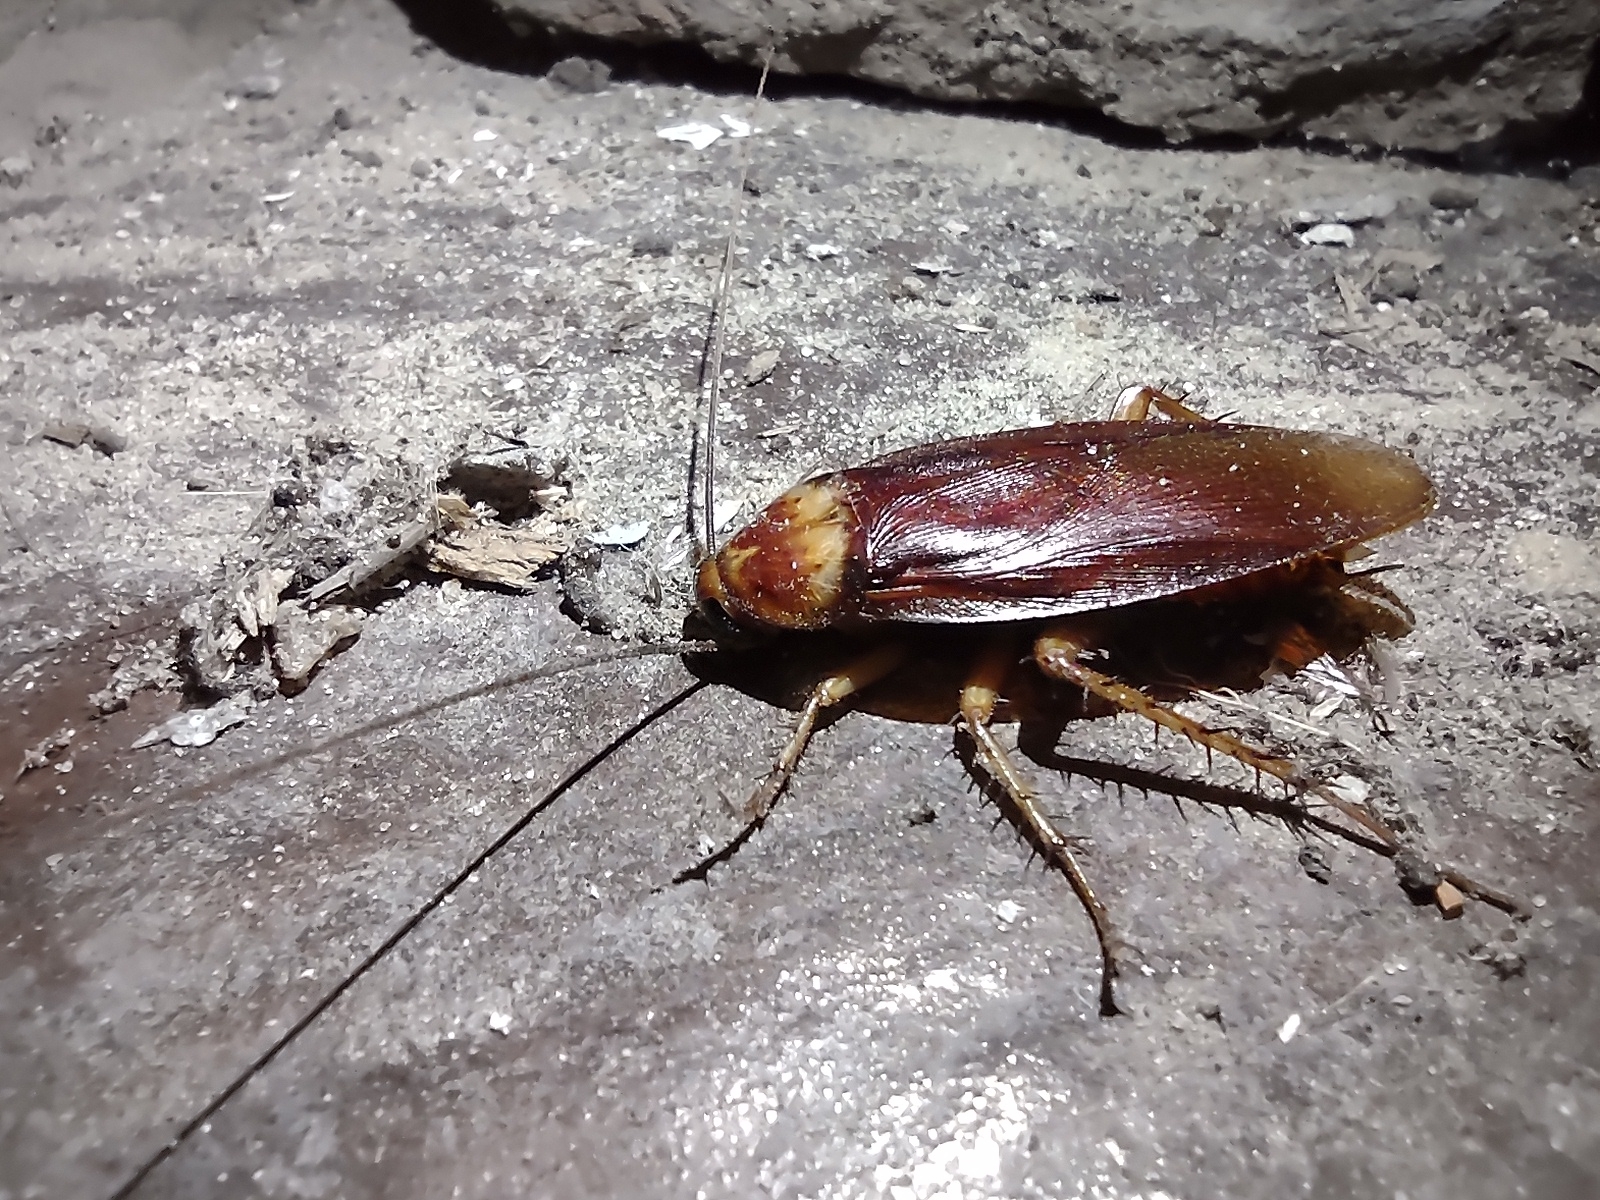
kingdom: Animalia
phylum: Arthropoda
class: Insecta
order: Blattodea
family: Blattidae
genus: Periplaneta
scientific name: Periplaneta americana
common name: American cockroach
